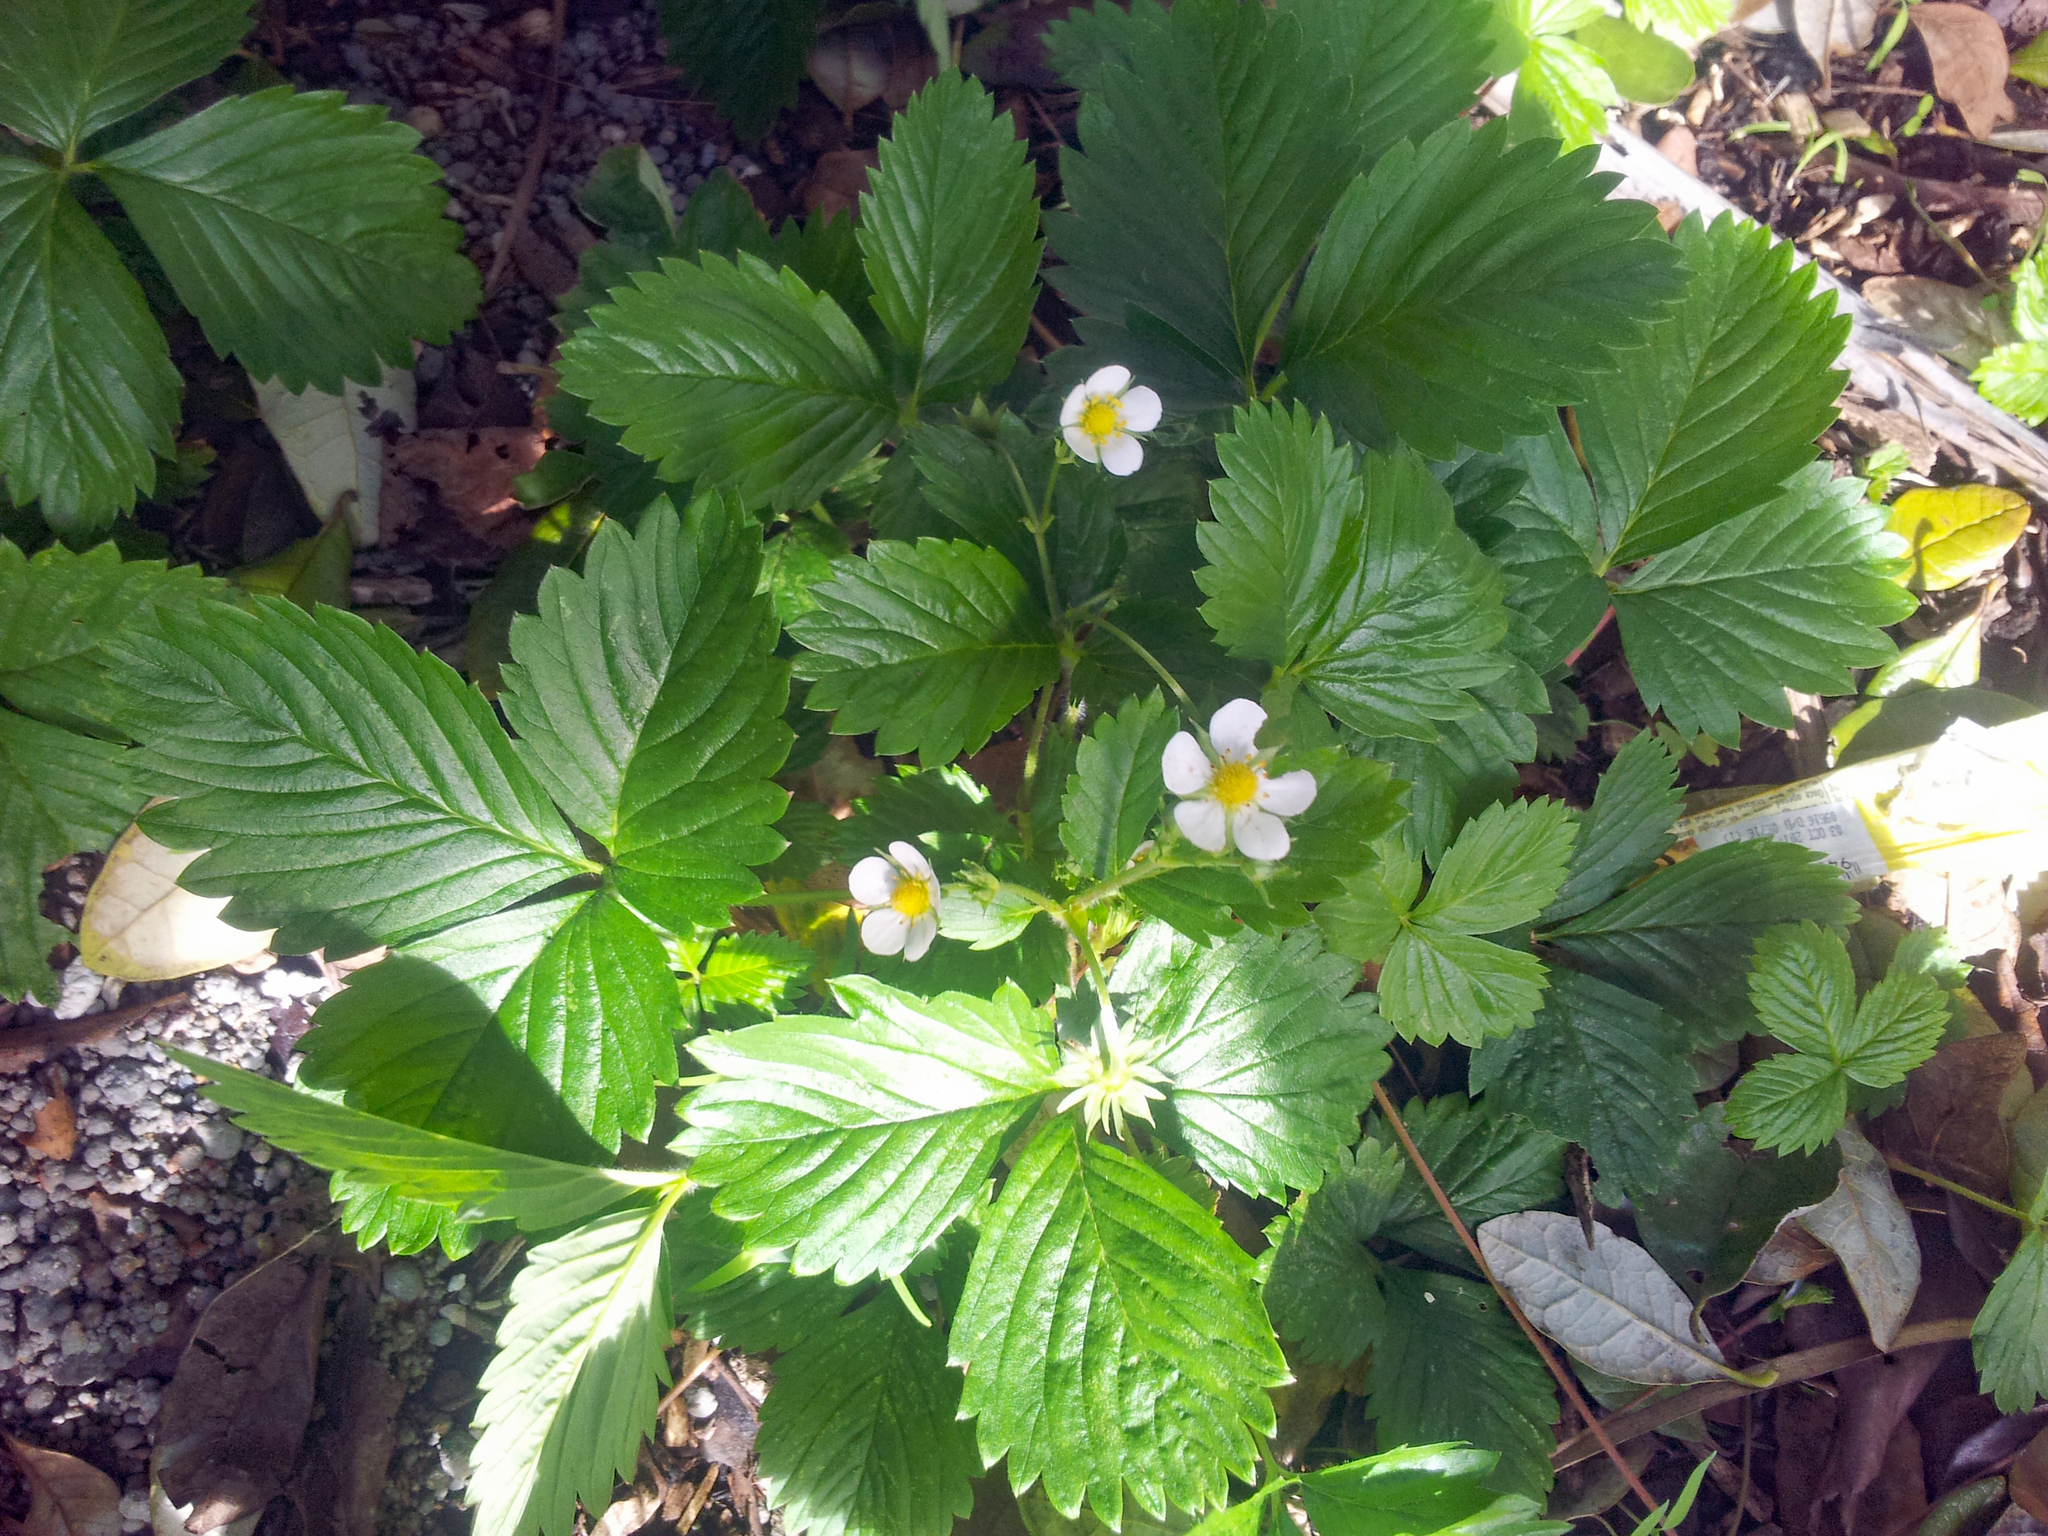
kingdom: Plantae
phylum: Tracheophyta
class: Magnoliopsida
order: Rosales
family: Rosaceae
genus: Fragaria
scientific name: Fragaria vesca
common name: Wild strawberry
